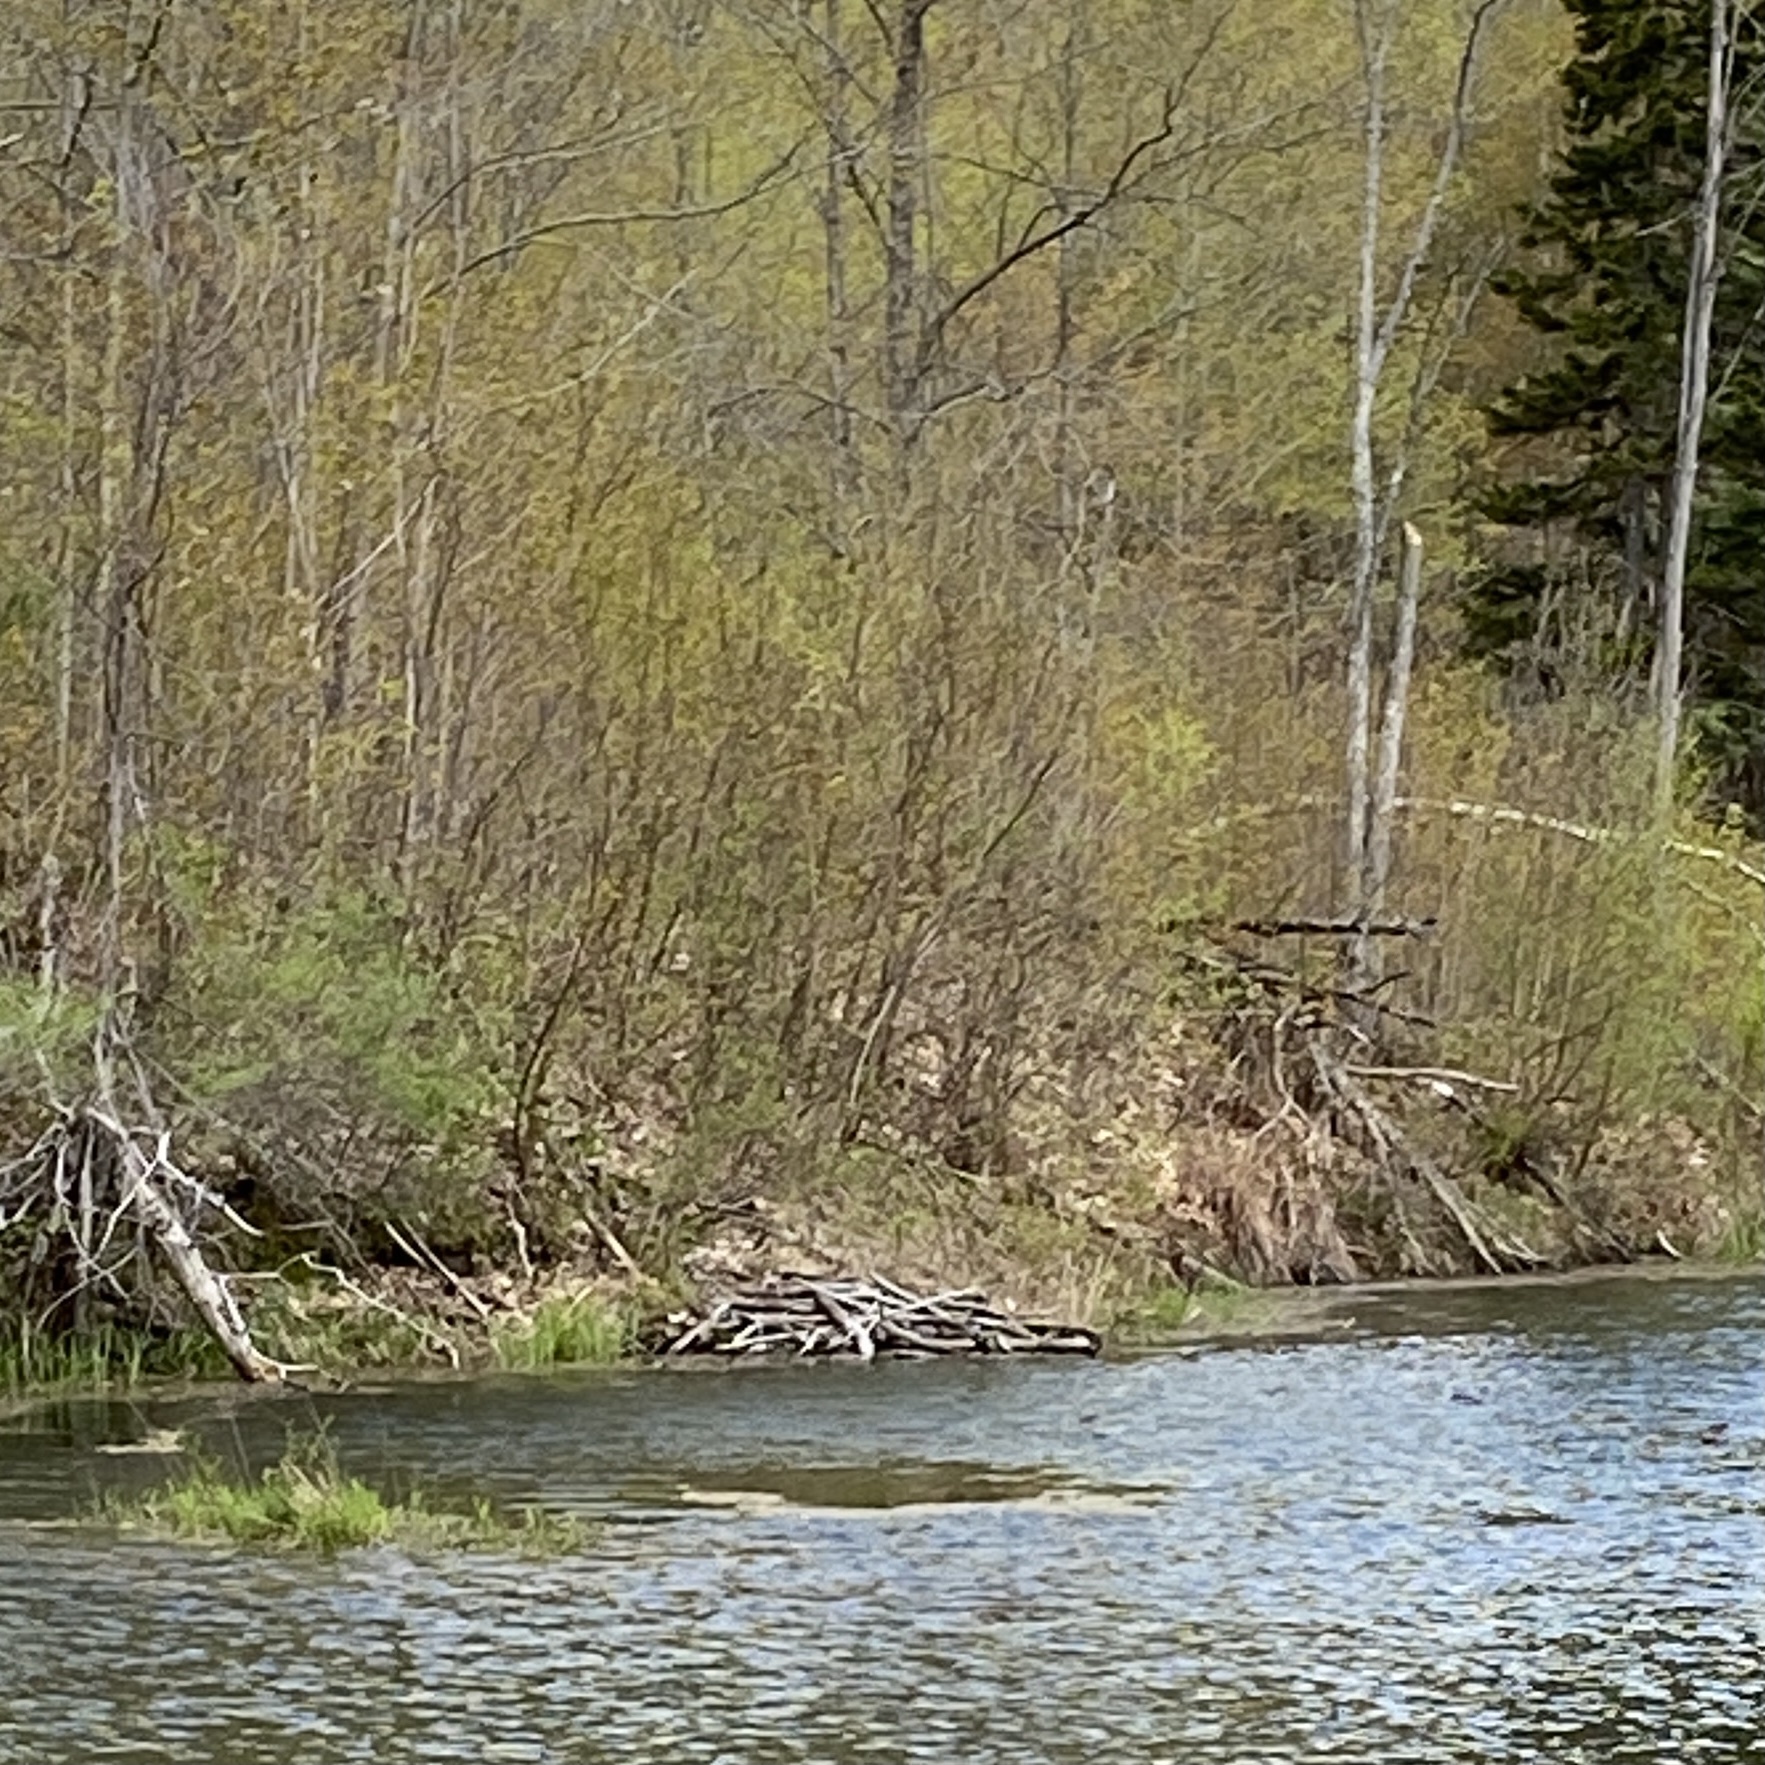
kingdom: Animalia
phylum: Chordata
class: Mammalia
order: Rodentia
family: Castoridae
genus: Castor
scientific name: Castor canadensis
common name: American beaver
